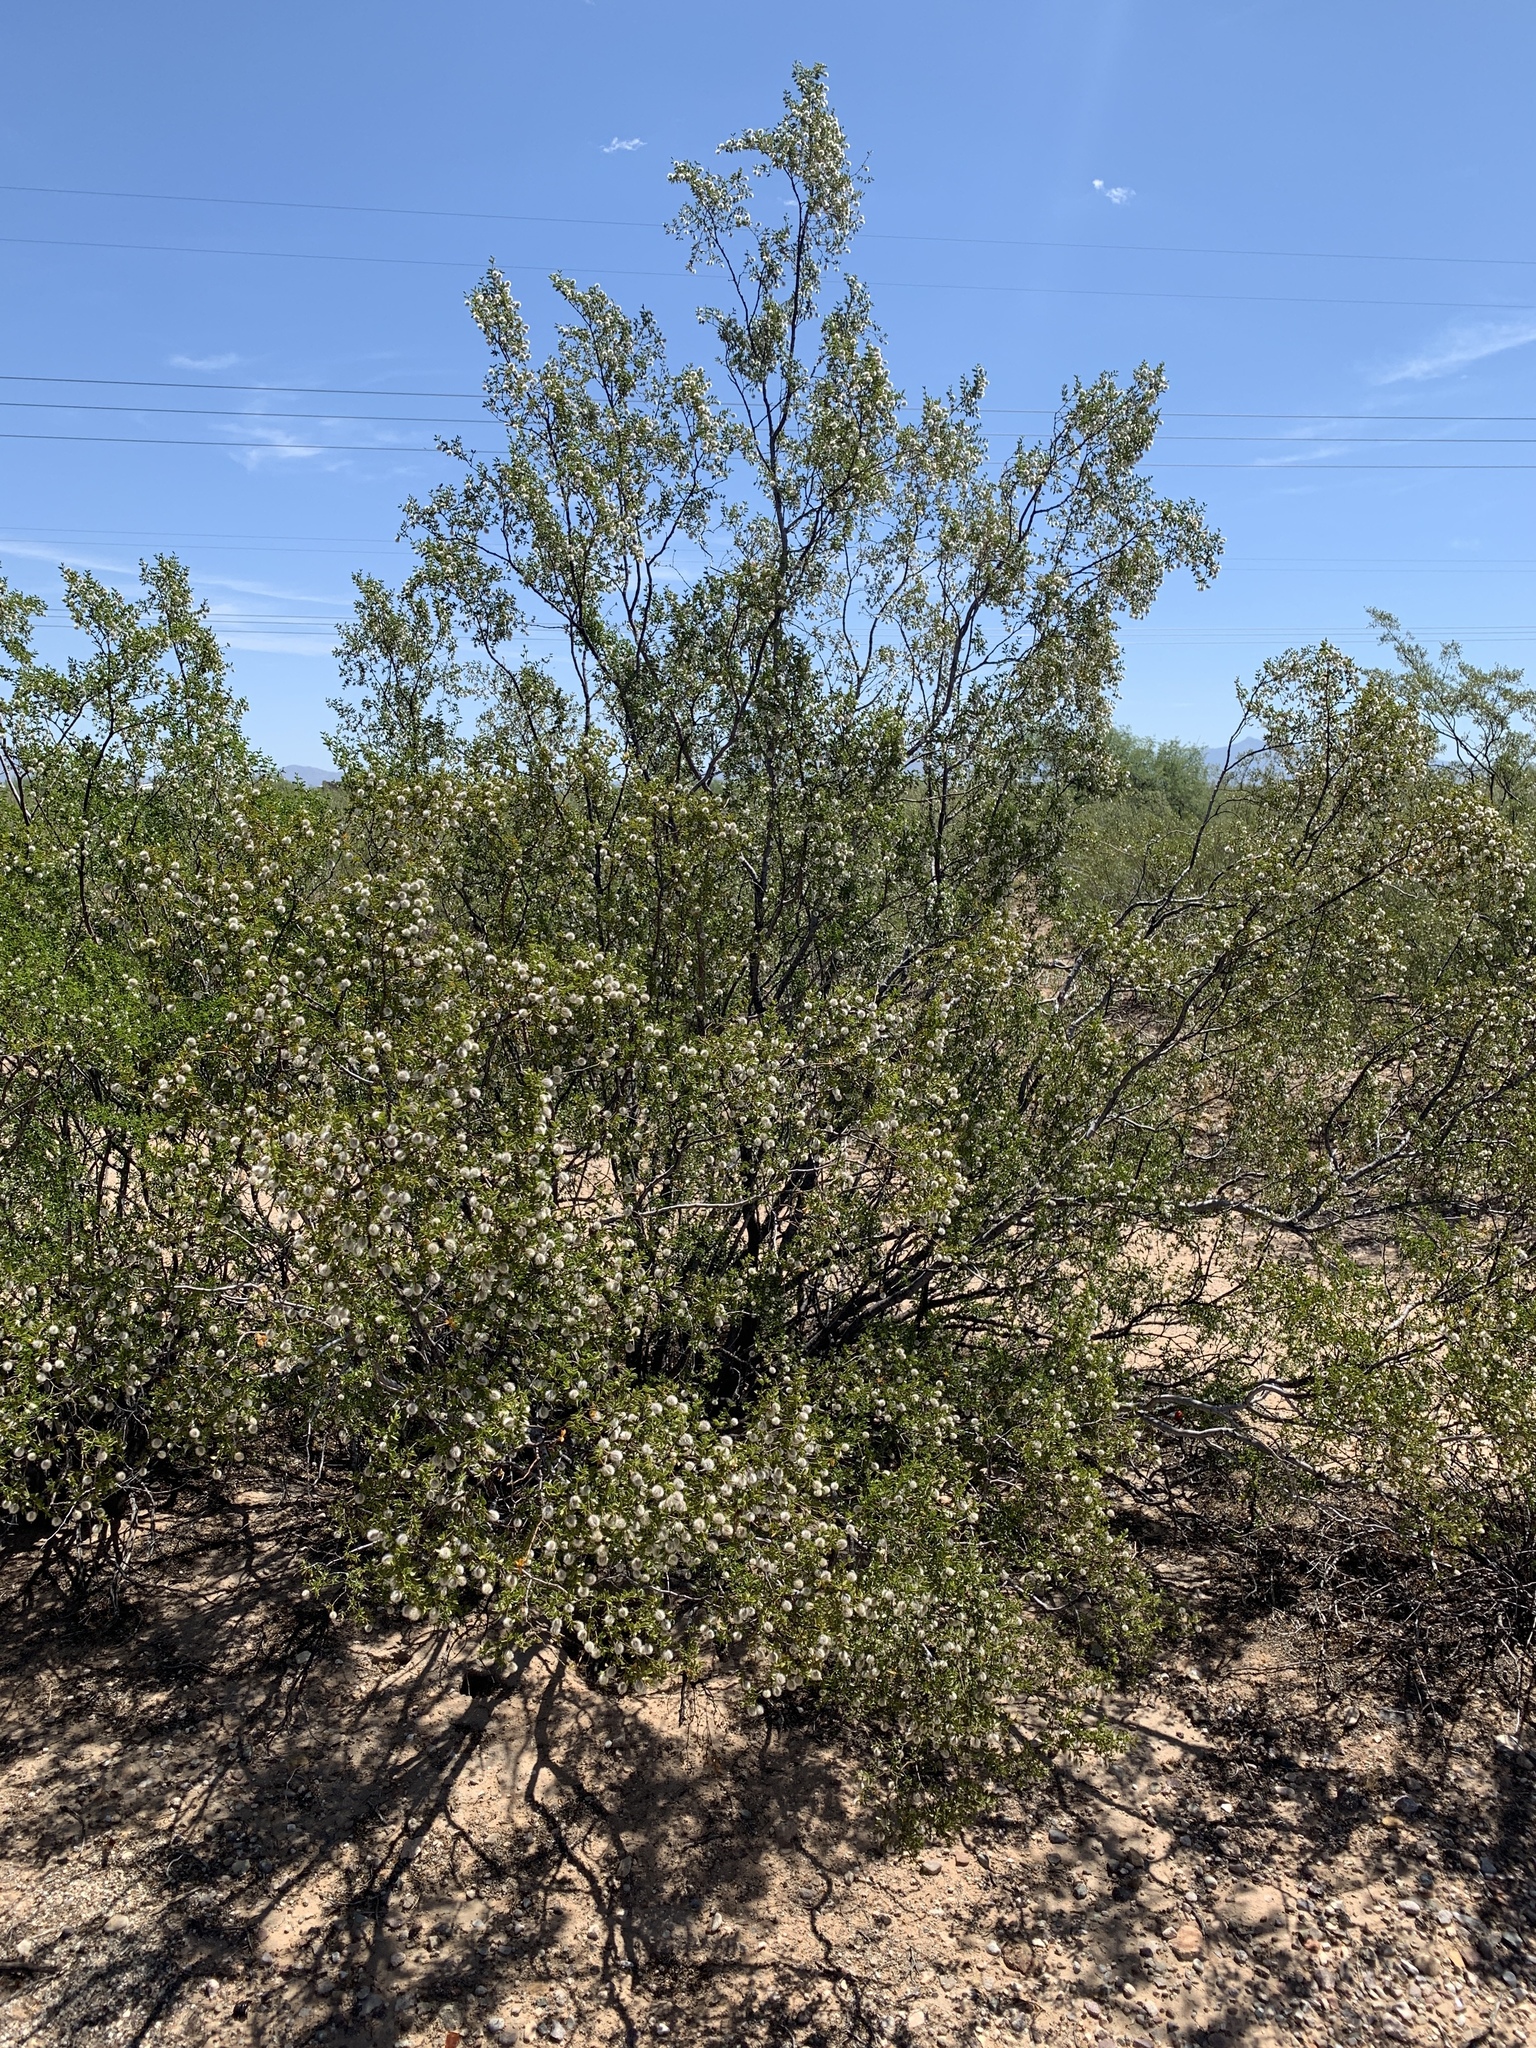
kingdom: Plantae
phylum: Tracheophyta
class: Magnoliopsida
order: Zygophyllales
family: Zygophyllaceae
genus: Larrea
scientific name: Larrea tridentata
